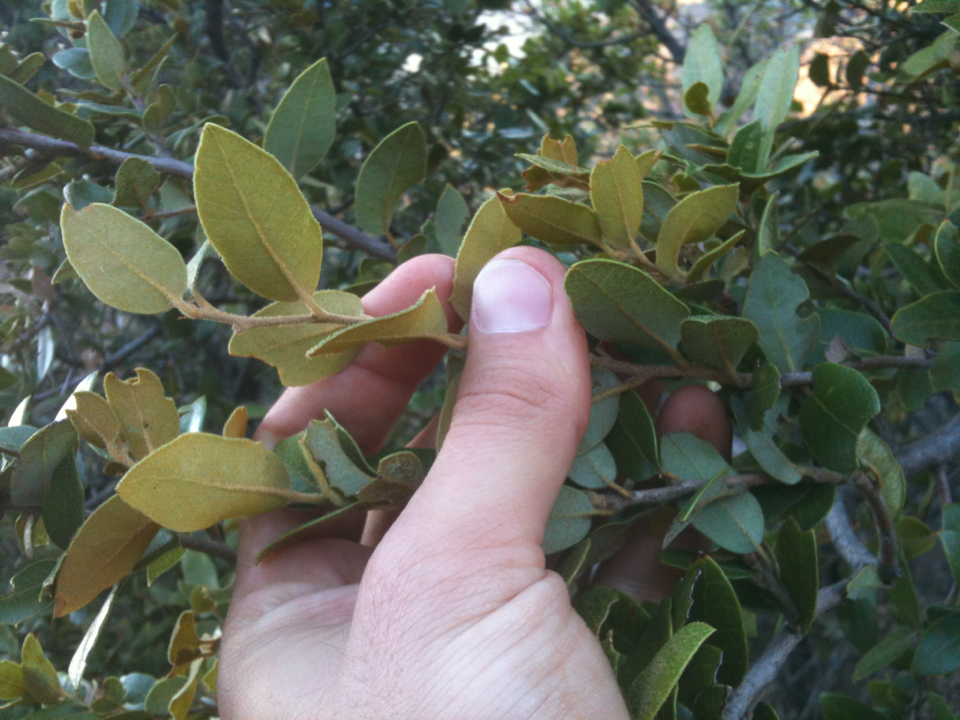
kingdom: Plantae
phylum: Tracheophyta
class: Magnoliopsida
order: Fagales
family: Fagaceae
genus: Quercus
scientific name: Quercus chrysolepis
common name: Canyon live oak
